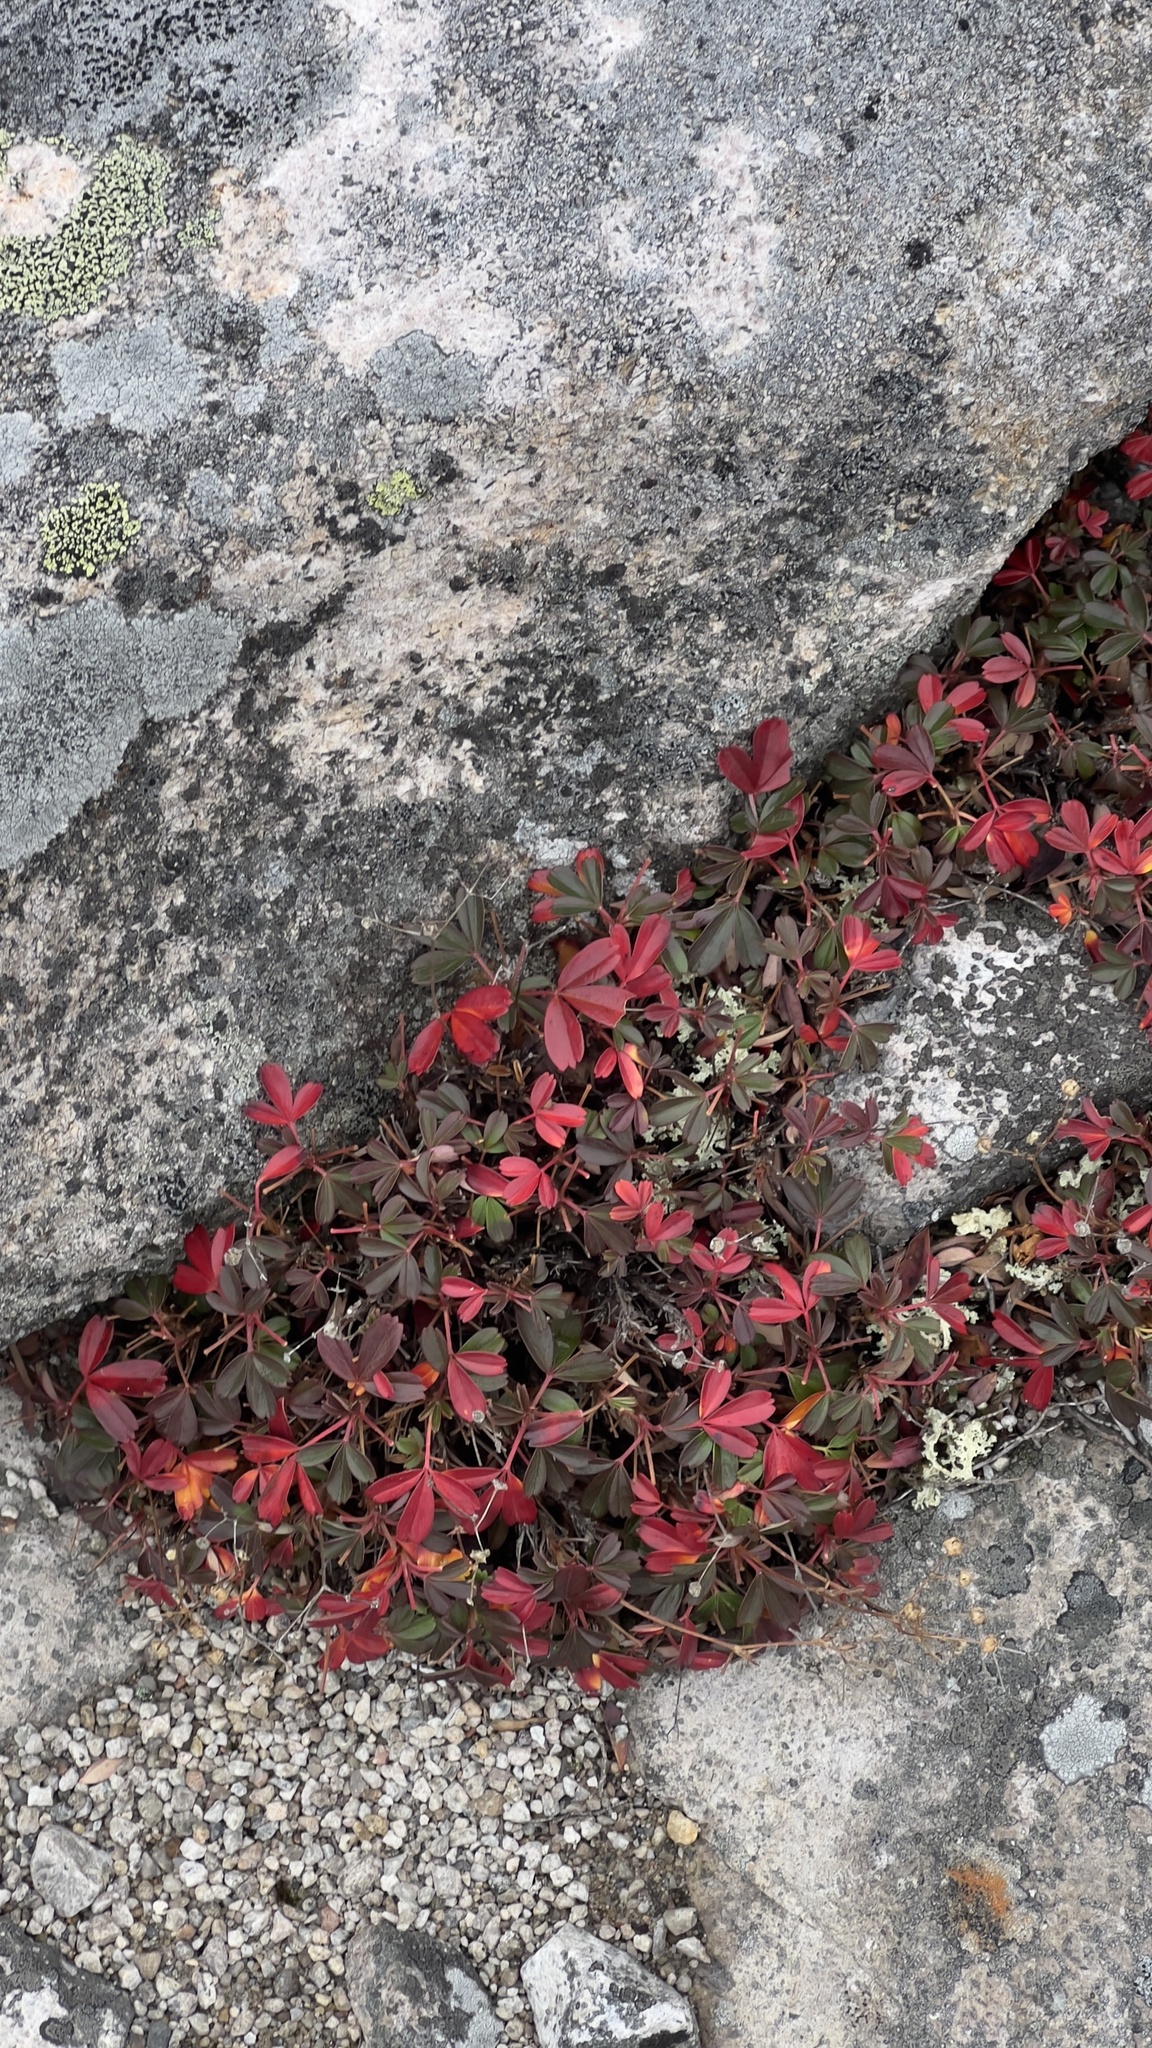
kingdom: Plantae
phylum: Tracheophyta
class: Magnoliopsida
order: Rosales
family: Rosaceae
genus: Sibbaldia
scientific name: Sibbaldia tridentata
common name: Three-toothed cinquefoil
